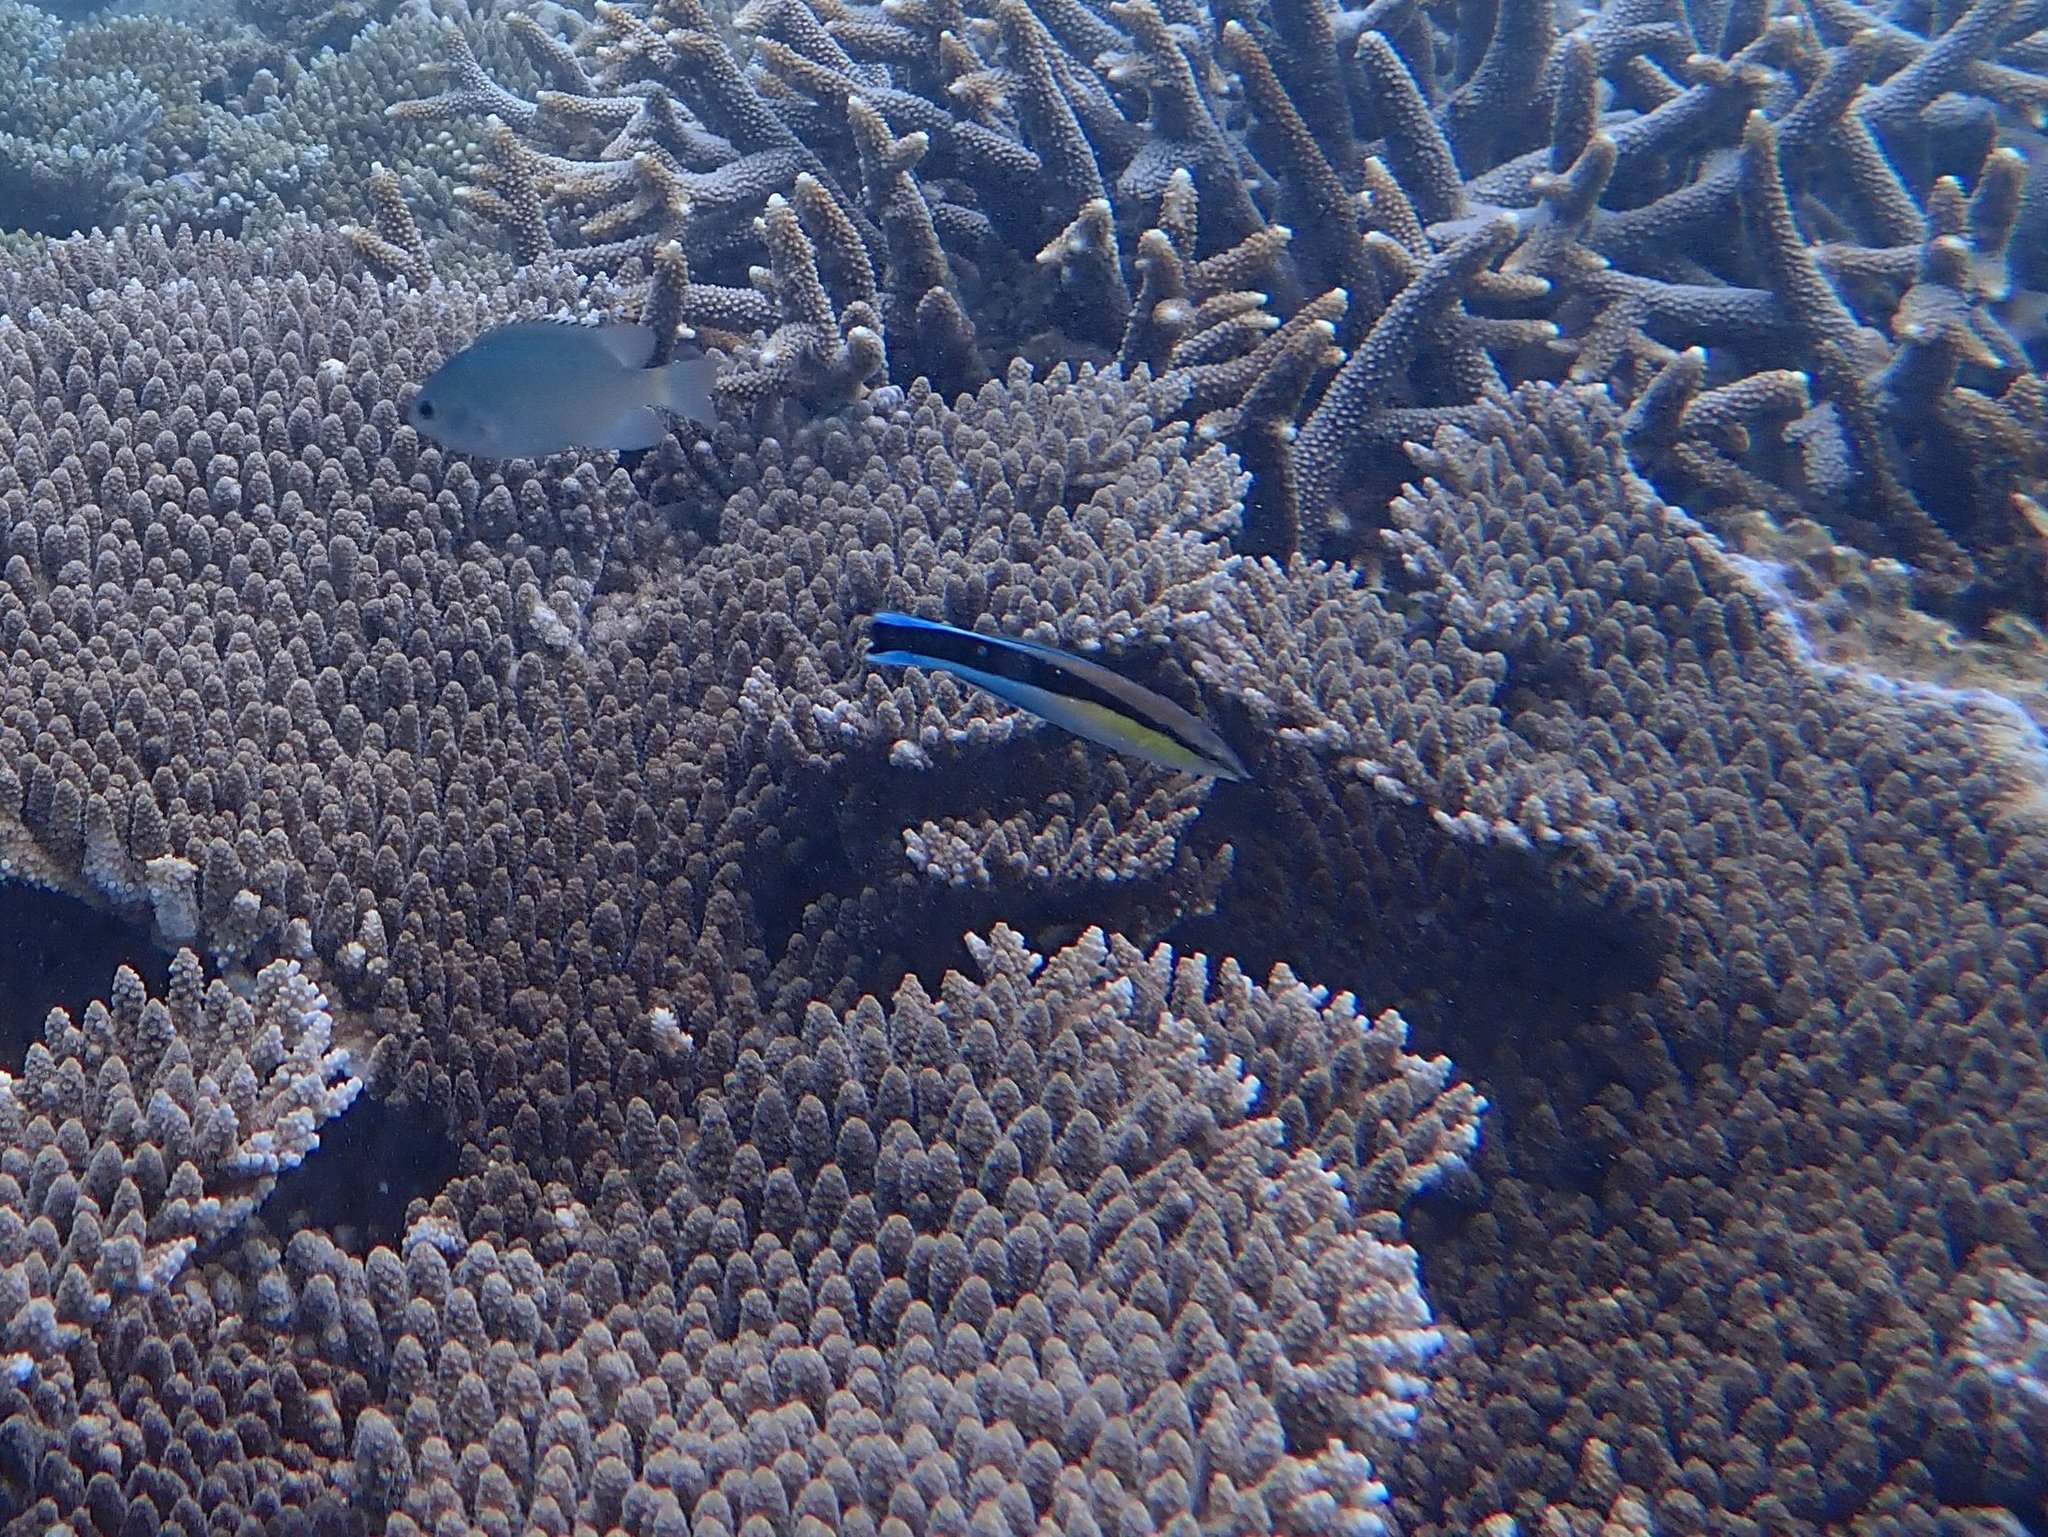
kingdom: Animalia
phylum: Chordata
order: Perciformes
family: Labridae
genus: Labroides
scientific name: Labroides dimidiatus
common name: Blue diesel wrasse
